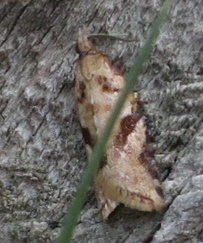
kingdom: Animalia
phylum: Arthropoda
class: Insecta
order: Lepidoptera
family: Tortricidae
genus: Capua
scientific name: Capua semiferana
